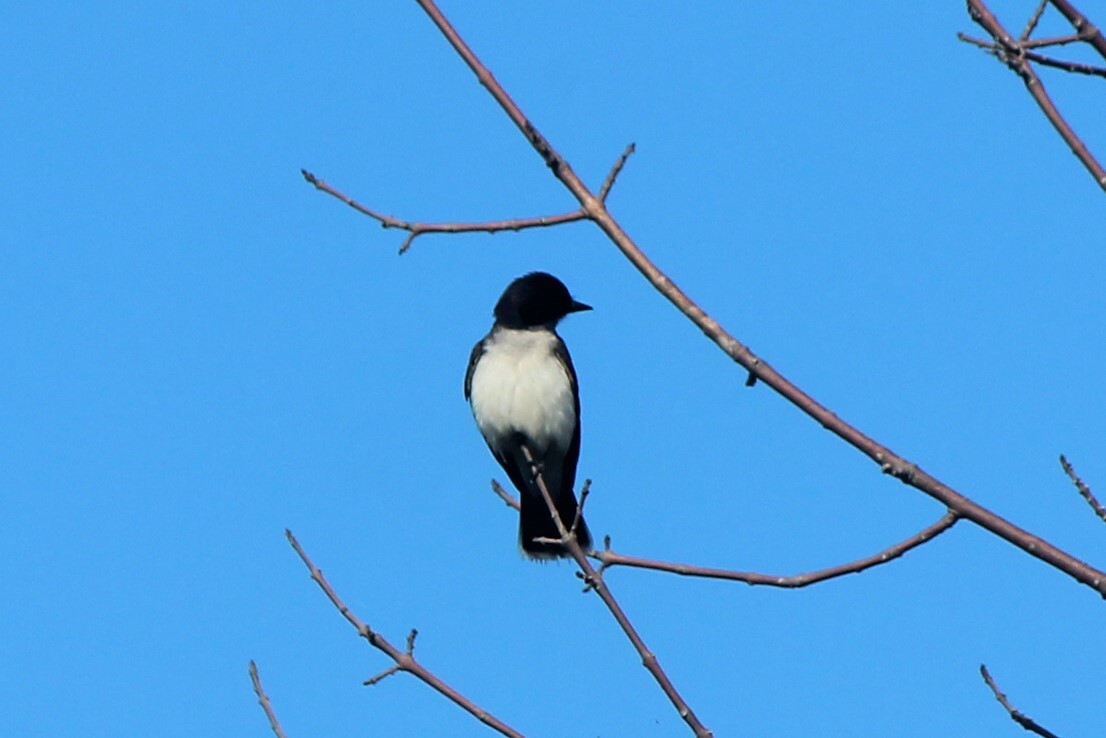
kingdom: Animalia
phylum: Chordata
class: Aves
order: Passeriformes
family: Tyrannidae
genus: Tyrannus
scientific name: Tyrannus tyrannus
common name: Eastern kingbird
